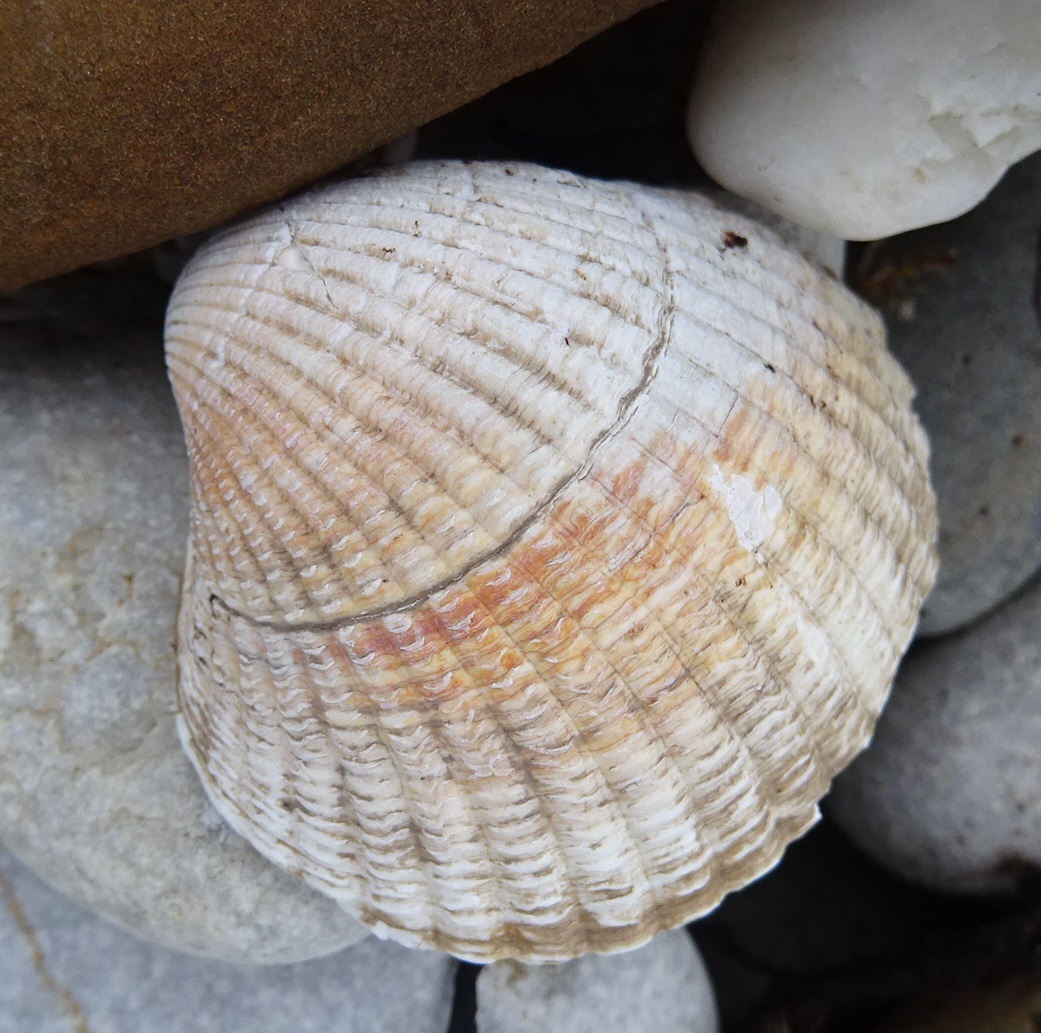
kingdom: Animalia
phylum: Mollusca
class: Bivalvia
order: Cardiida
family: Cardiidae
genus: Cerastoderma
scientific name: Cerastoderma edule
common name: Common cockle
